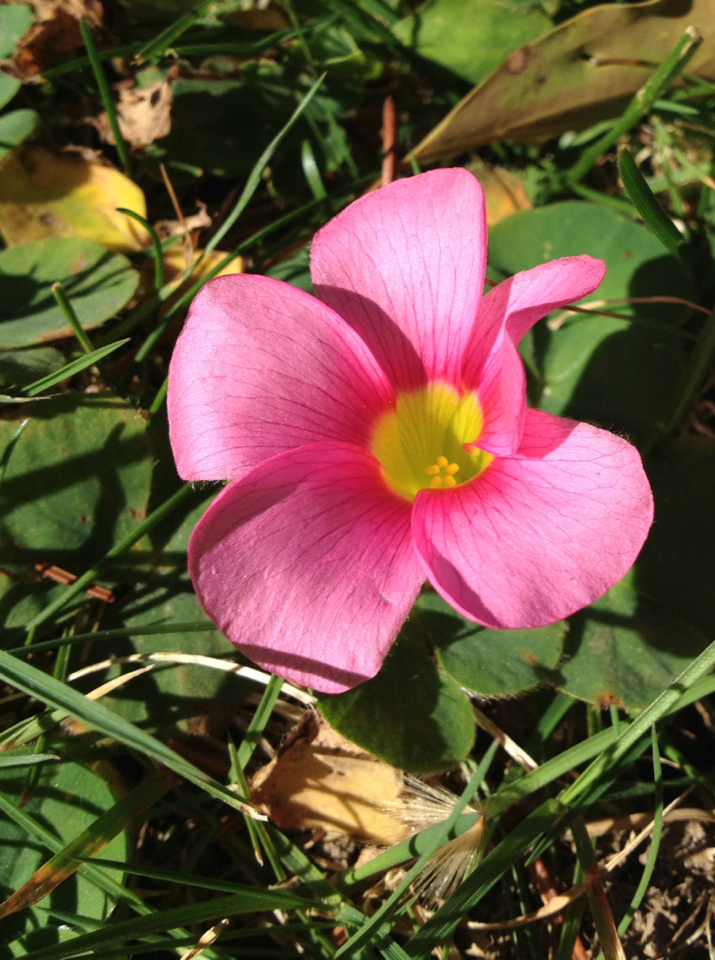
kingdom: Plantae
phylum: Tracheophyta
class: Magnoliopsida
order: Oxalidales
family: Oxalidaceae
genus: Oxalis
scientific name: Oxalis purpurea
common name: Purple woodsorrel
